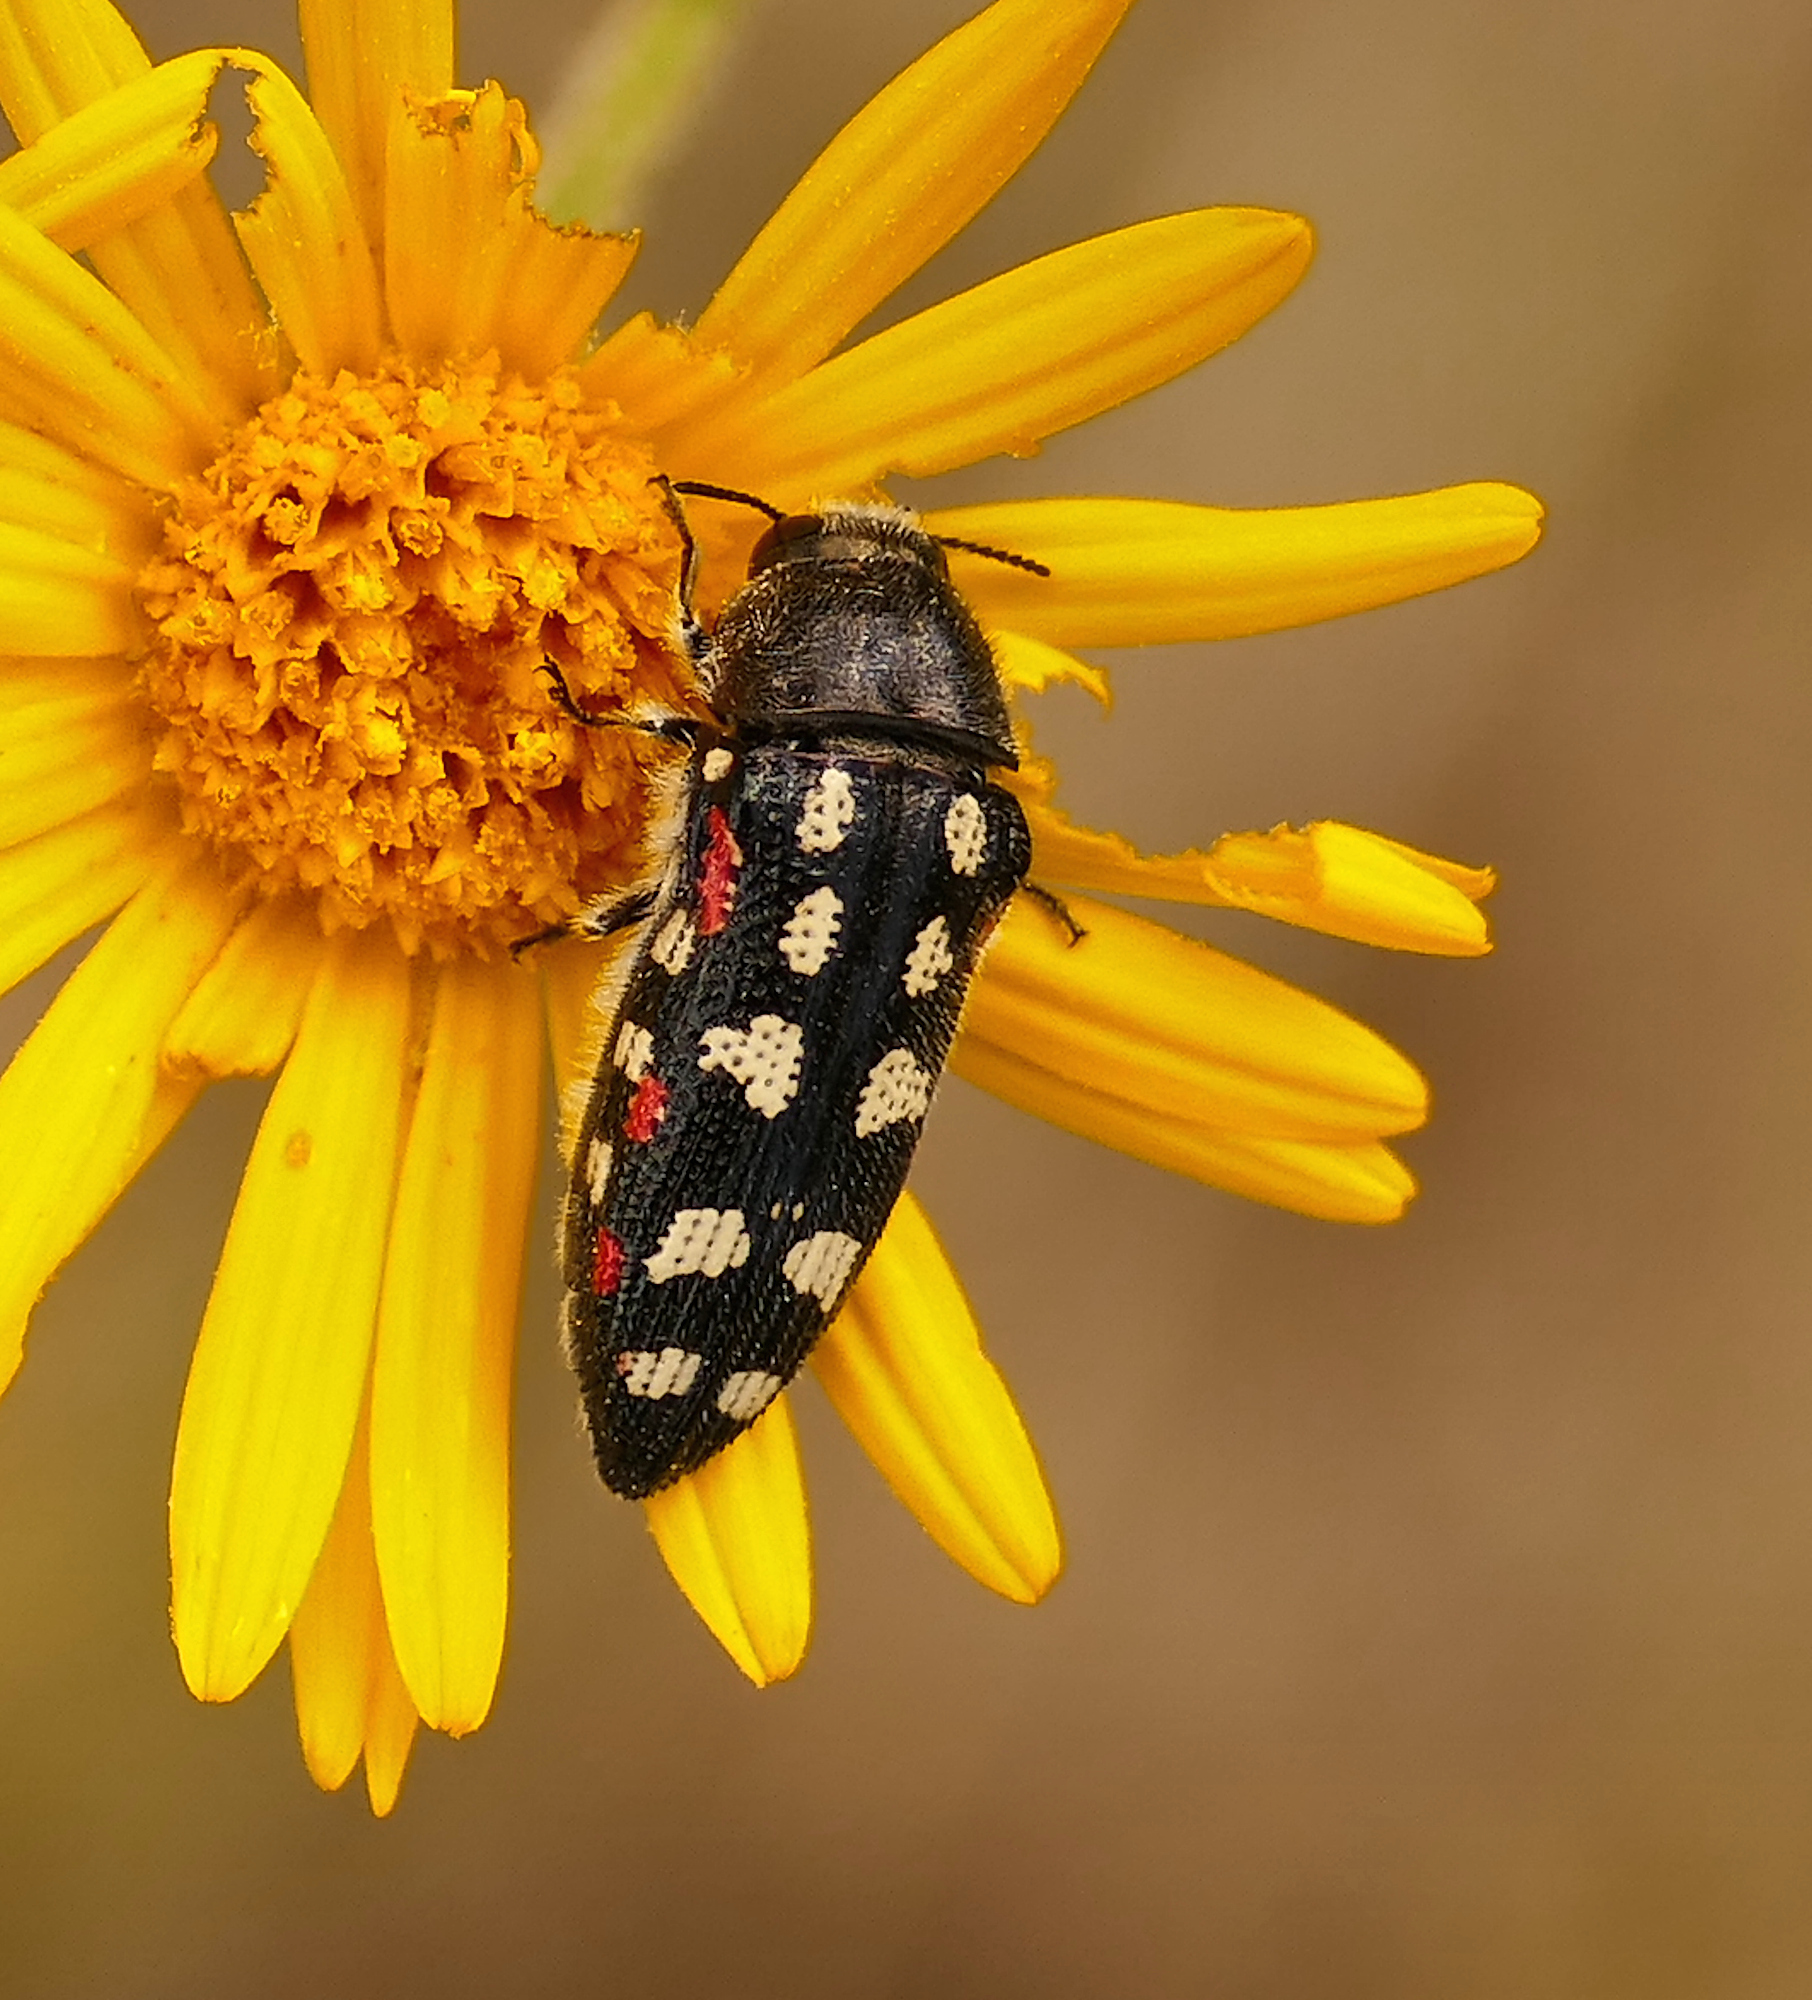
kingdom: Animalia
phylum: Arthropoda
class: Insecta
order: Coleoptera
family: Buprestidae
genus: Acmaeodera
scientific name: Acmaeodera gibbula
